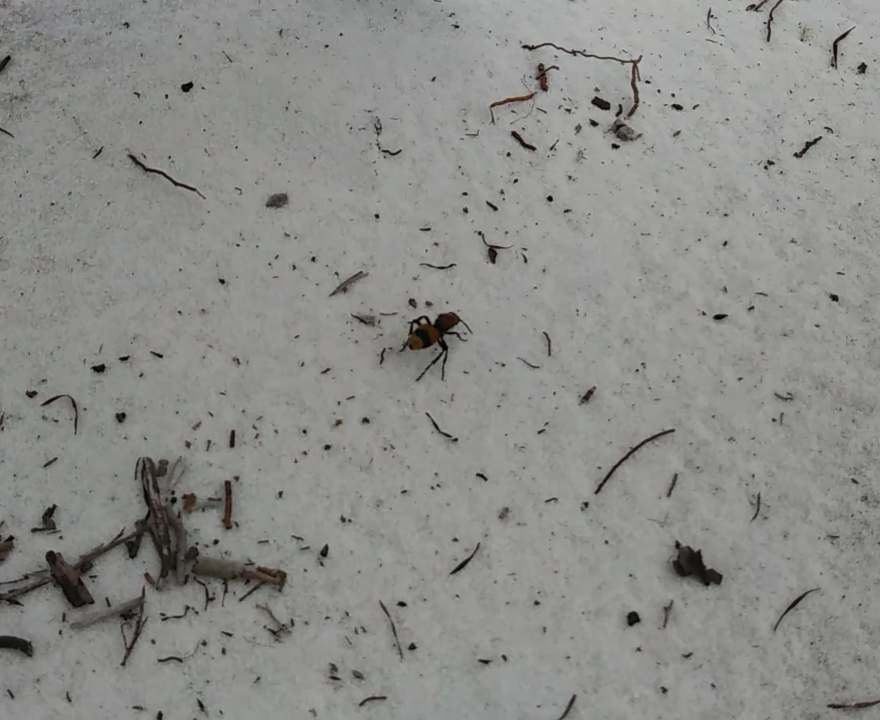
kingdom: Animalia
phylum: Arthropoda
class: Insecta
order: Hymenoptera
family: Mutillidae
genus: Dasymutilla
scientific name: Dasymutilla occidentalis
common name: Common eastern velvet ant
